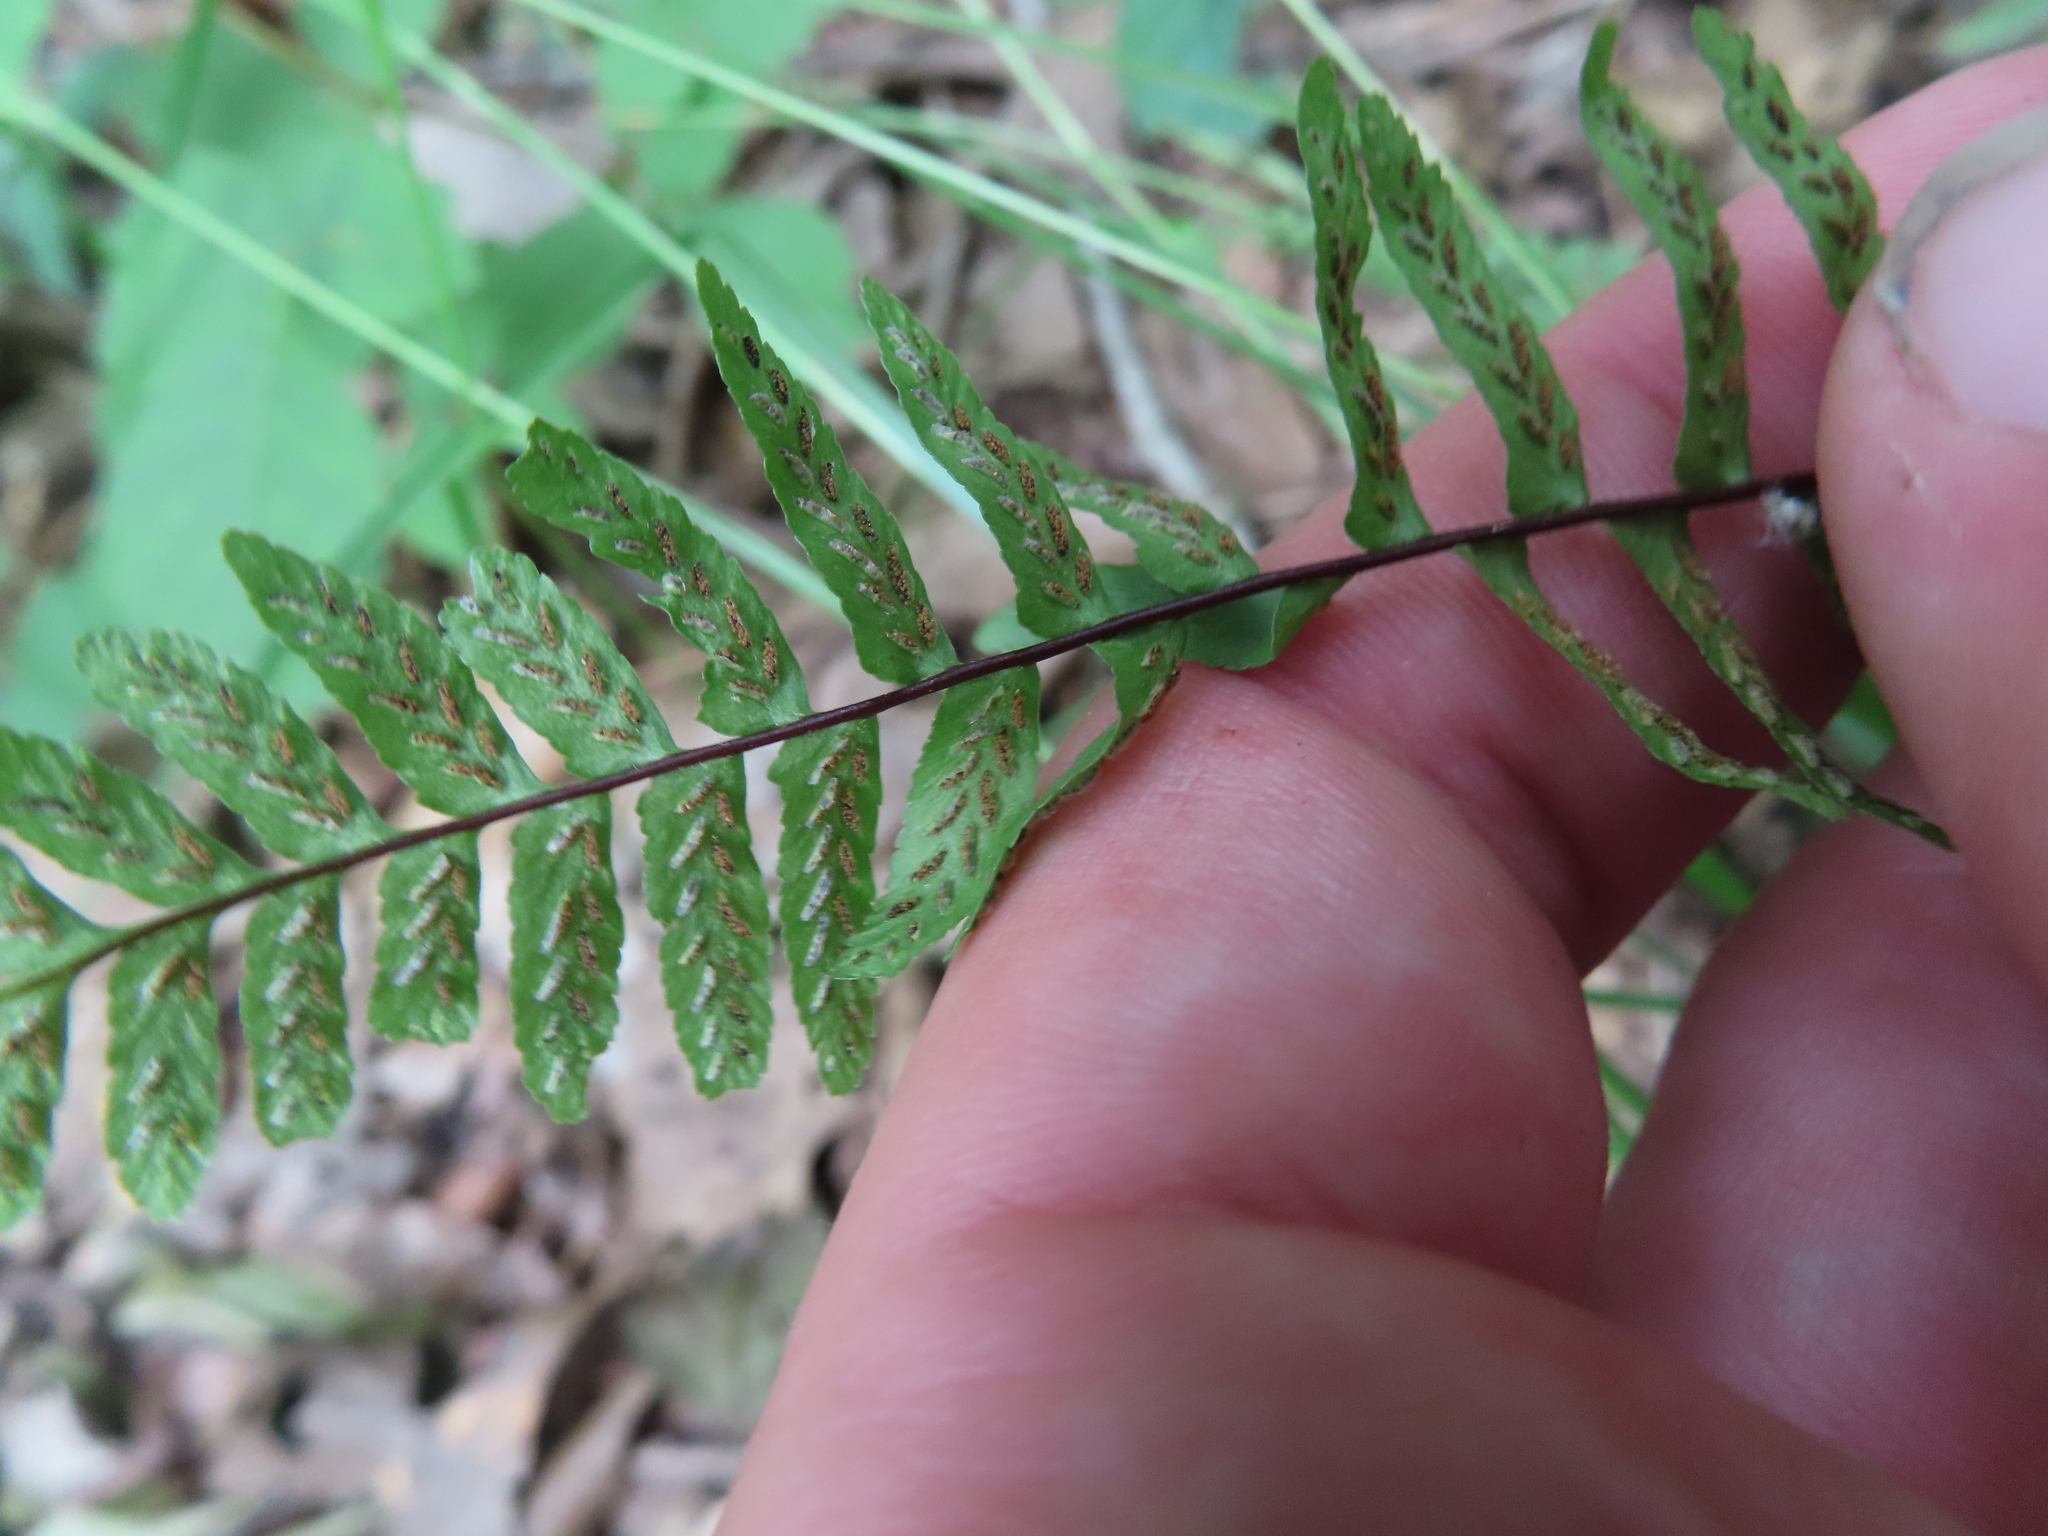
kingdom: Plantae
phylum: Tracheophyta
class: Polypodiopsida
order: Polypodiales
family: Aspleniaceae
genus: Asplenium
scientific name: Asplenium platyneuron
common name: Ebony spleenwort
